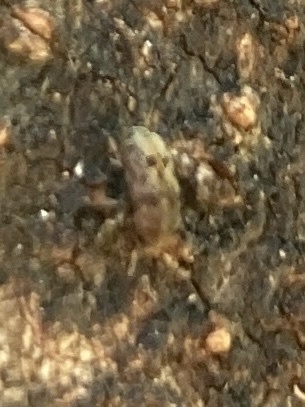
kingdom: Animalia
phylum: Arthropoda
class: Insecta
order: Coleoptera
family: Curculionidae
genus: Chaetoptelius
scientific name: Chaetoptelius mundulus
